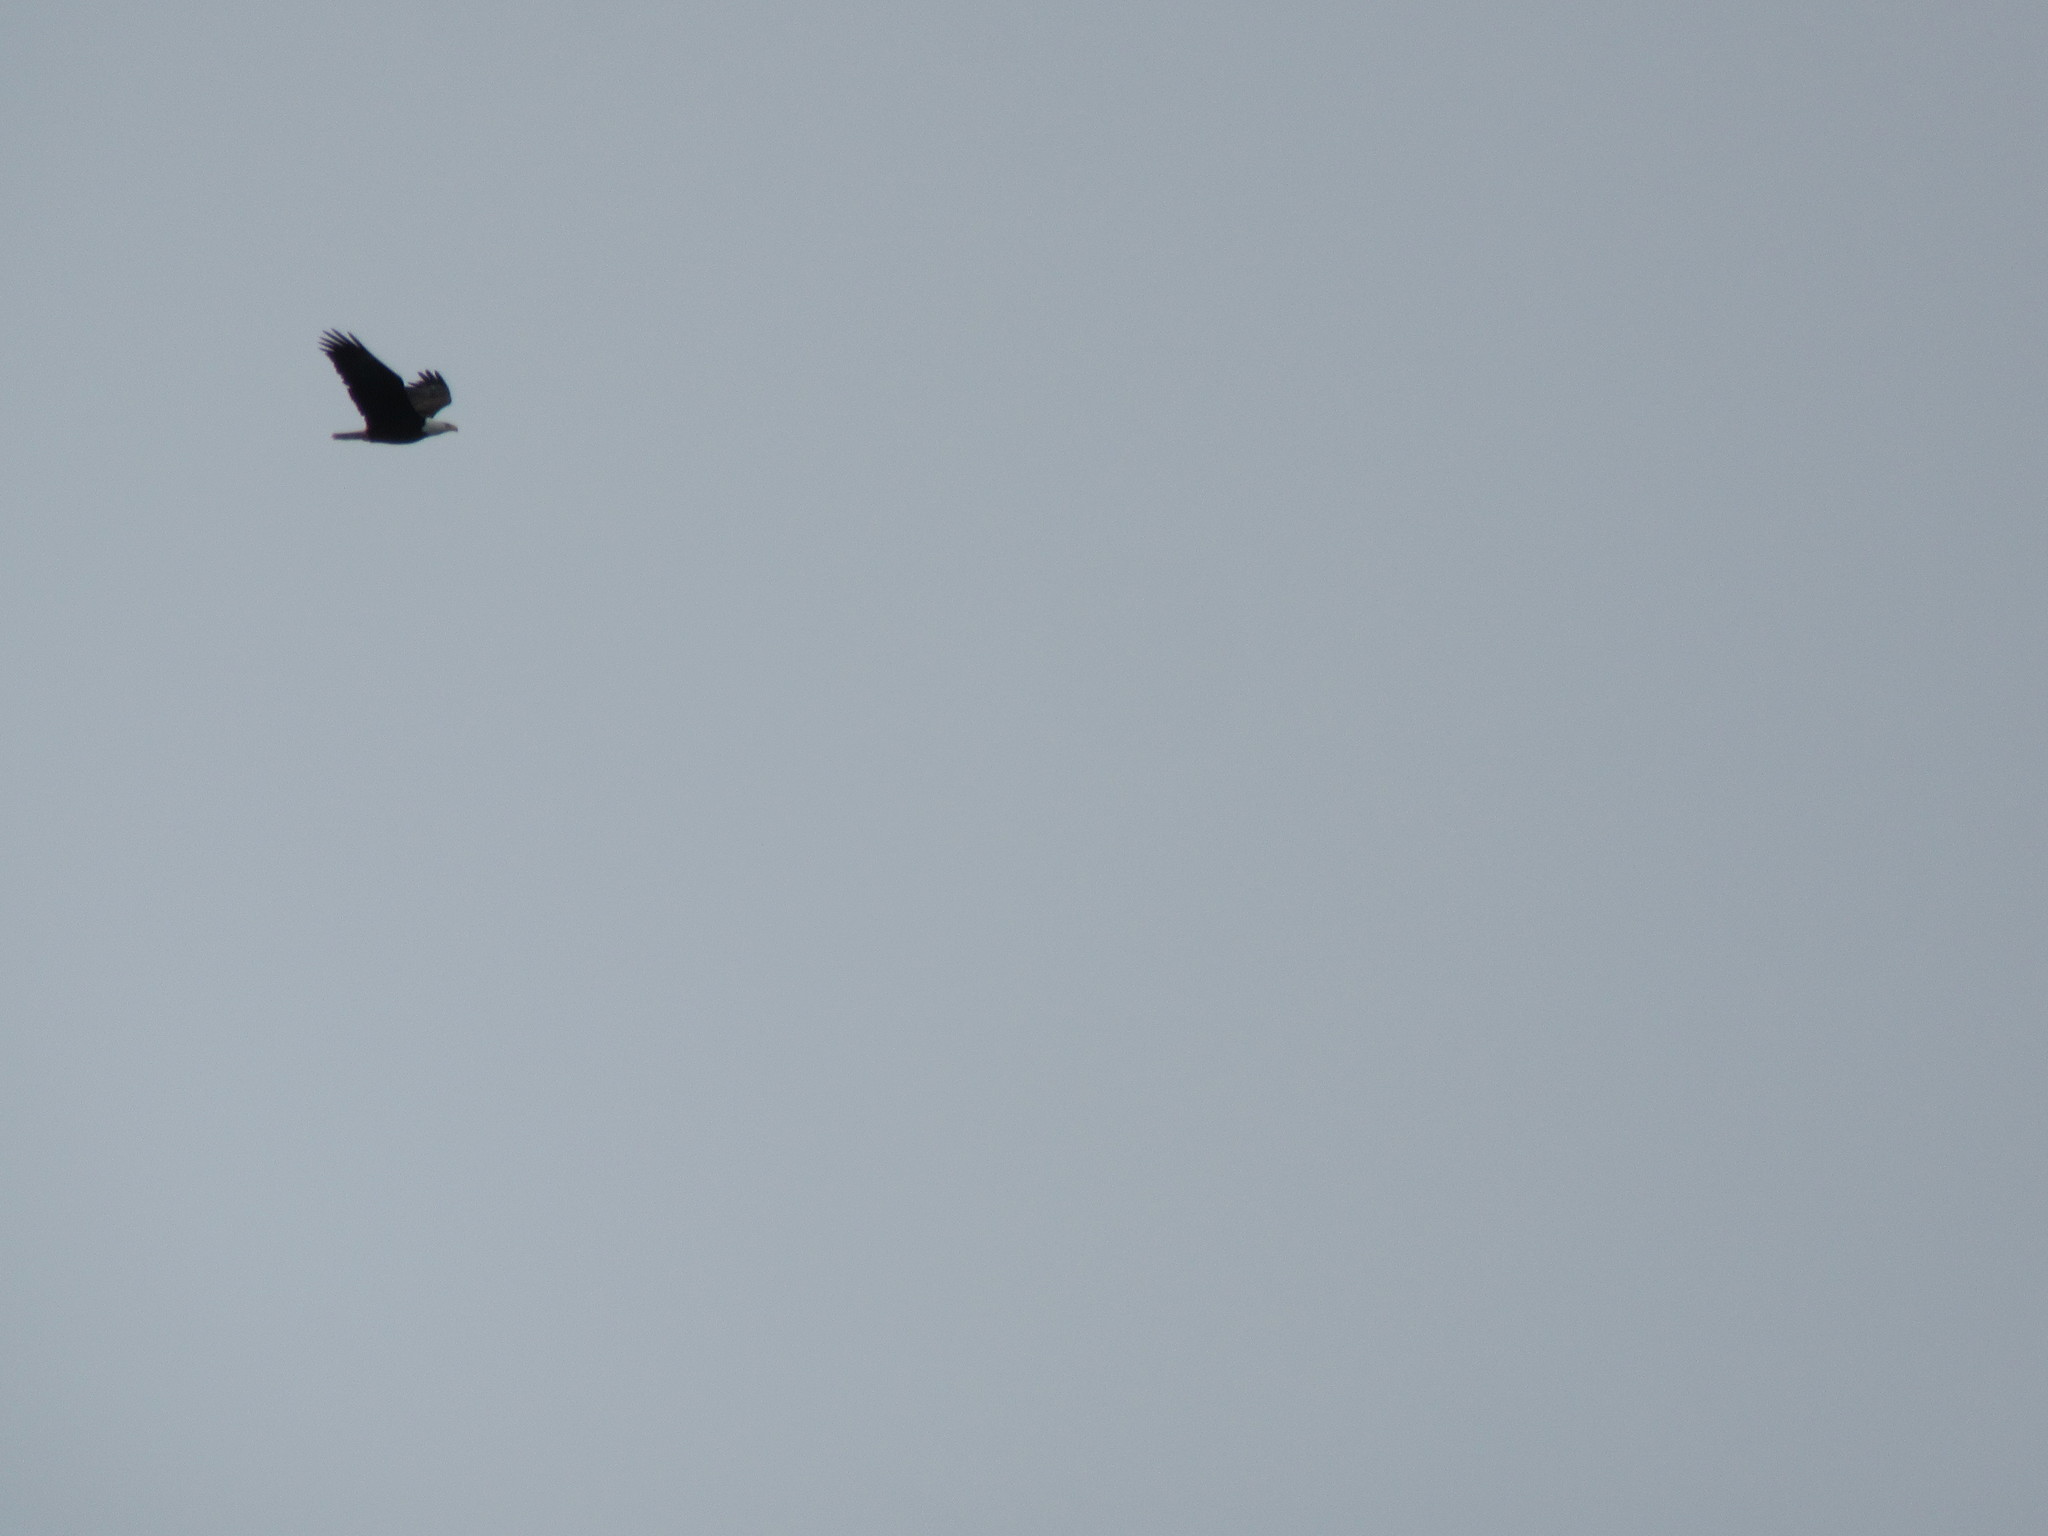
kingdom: Animalia
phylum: Chordata
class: Aves
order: Accipitriformes
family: Accipitridae
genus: Haliaeetus
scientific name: Haliaeetus leucocephalus
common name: Bald eagle
